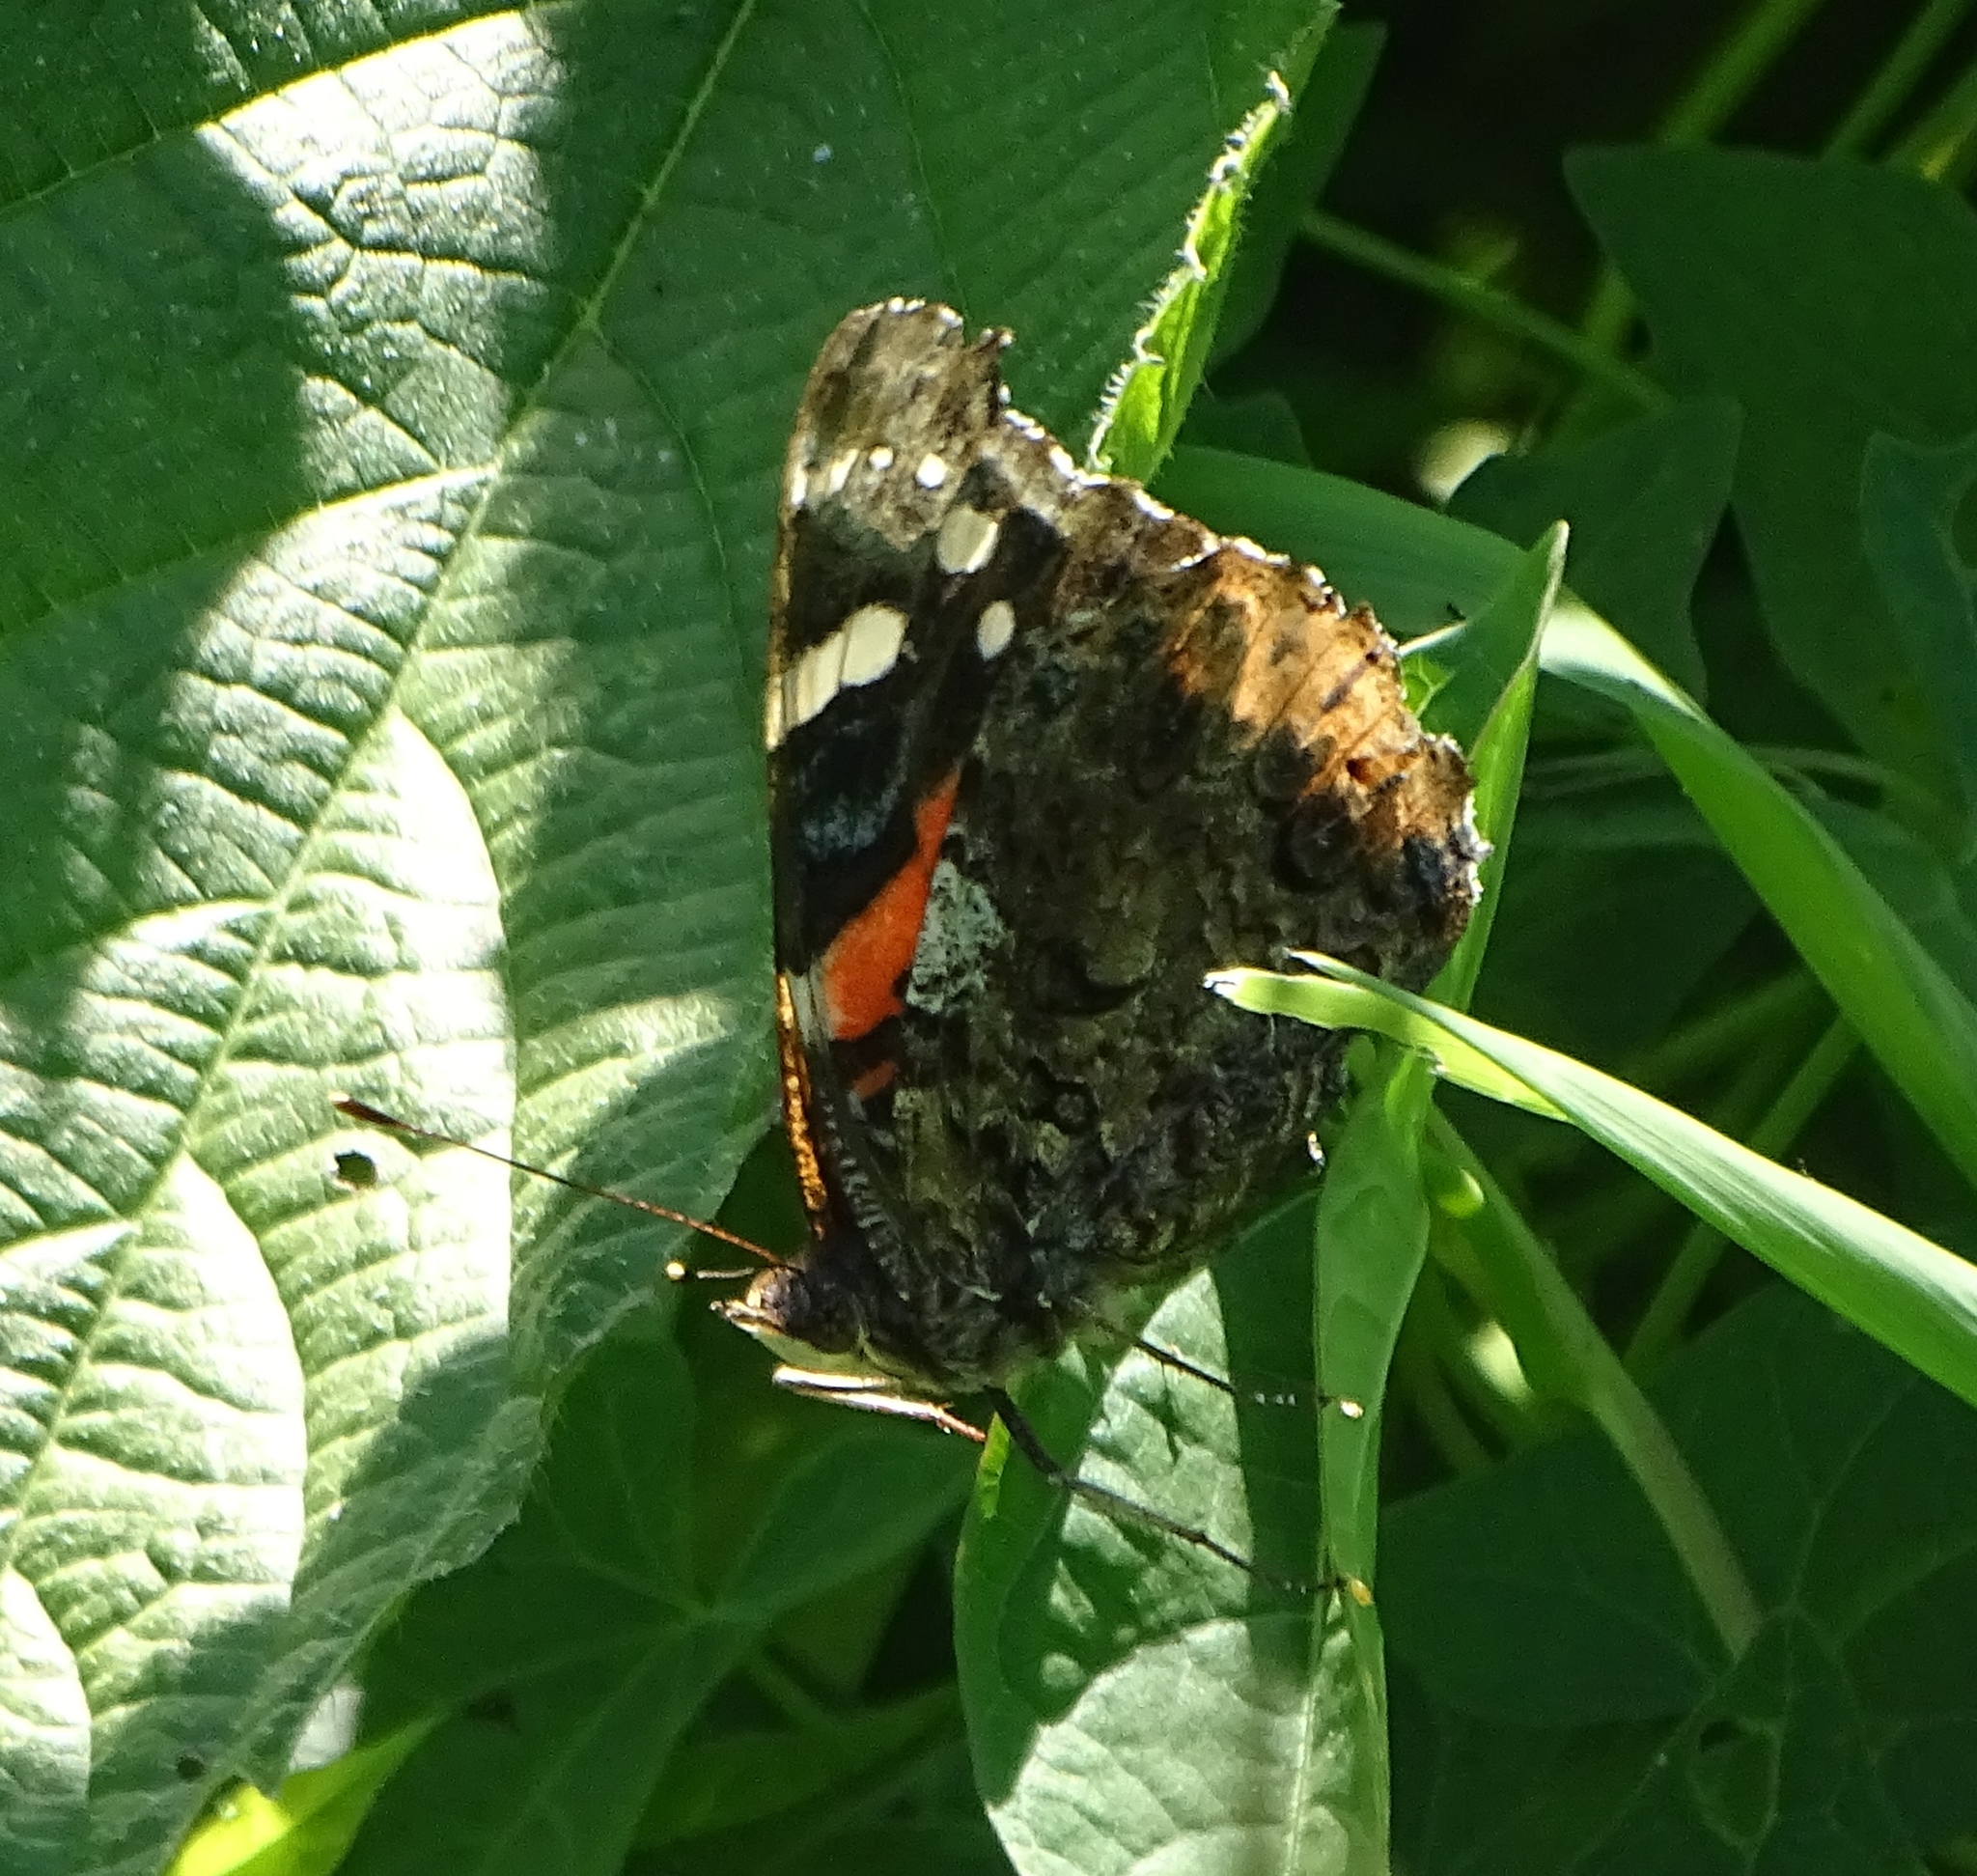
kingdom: Animalia
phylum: Arthropoda
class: Insecta
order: Lepidoptera
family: Nymphalidae
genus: Vanessa
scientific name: Vanessa atalanta
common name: Red admiral
